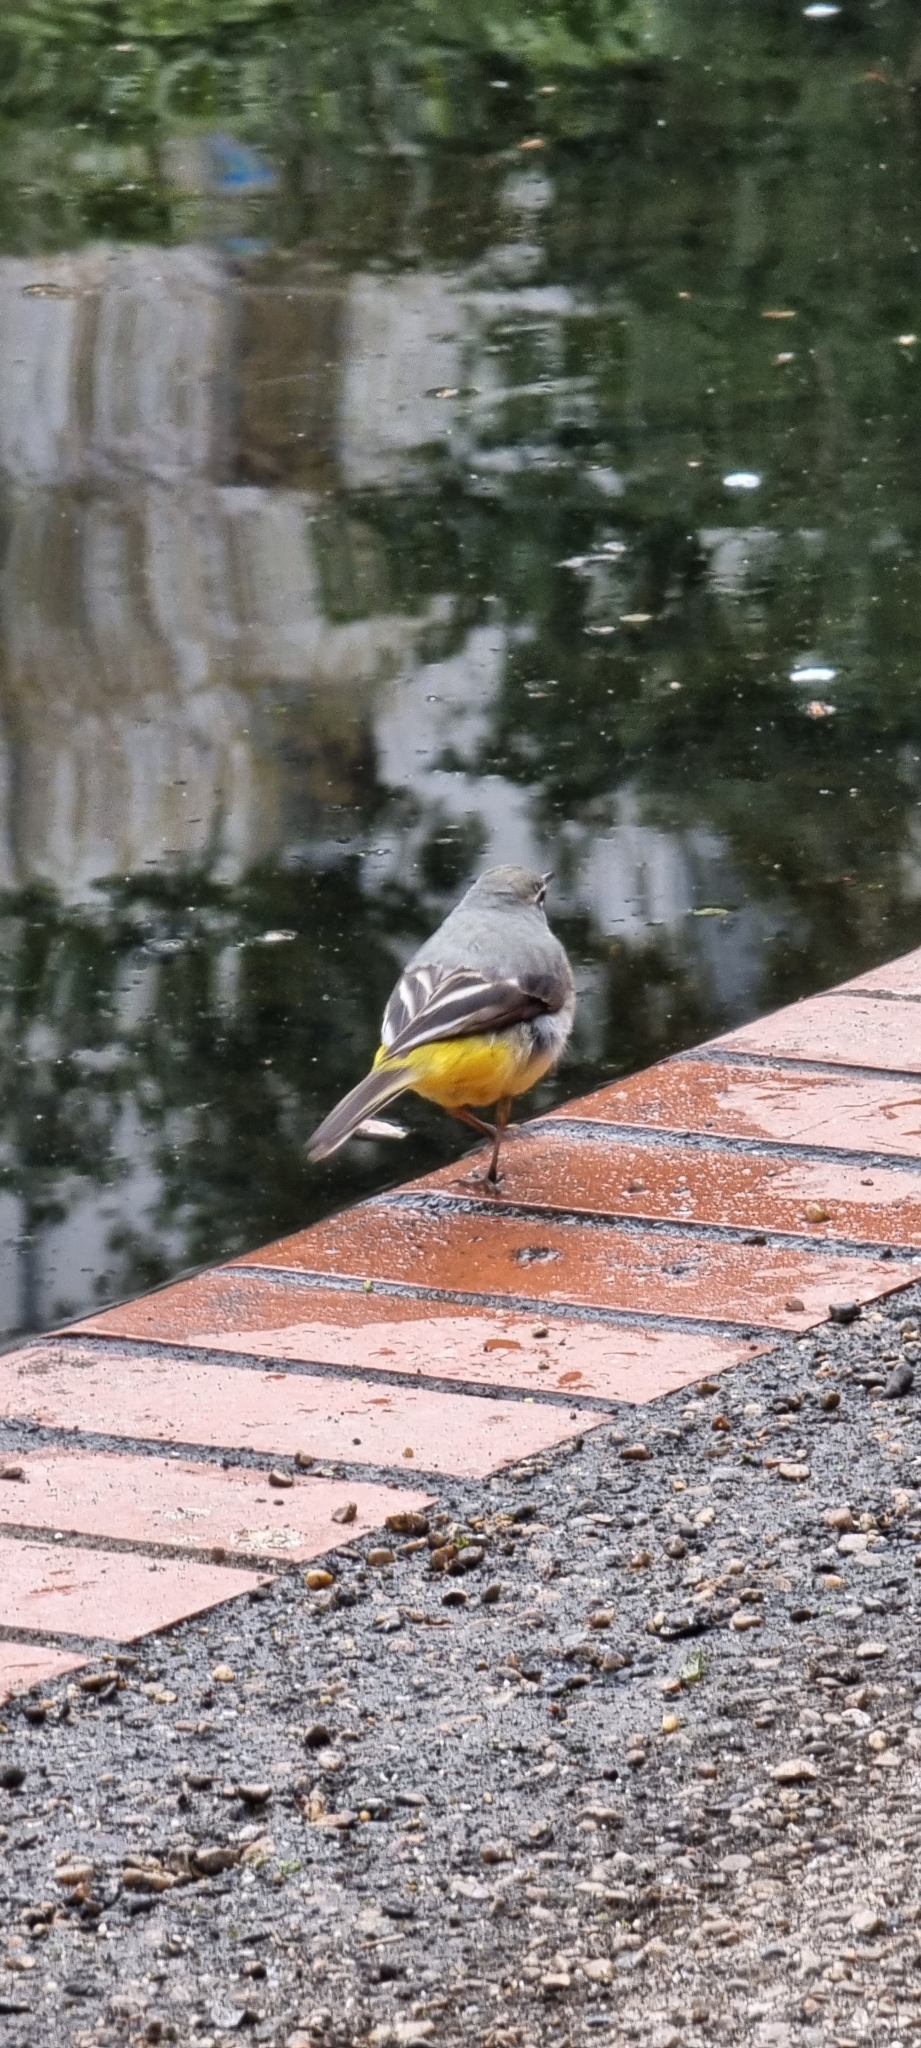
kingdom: Animalia
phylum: Chordata
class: Aves
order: Passeriformes
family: Motacillidae
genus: Motacilla
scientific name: Motacilla cinerea
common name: Grey wagtail
